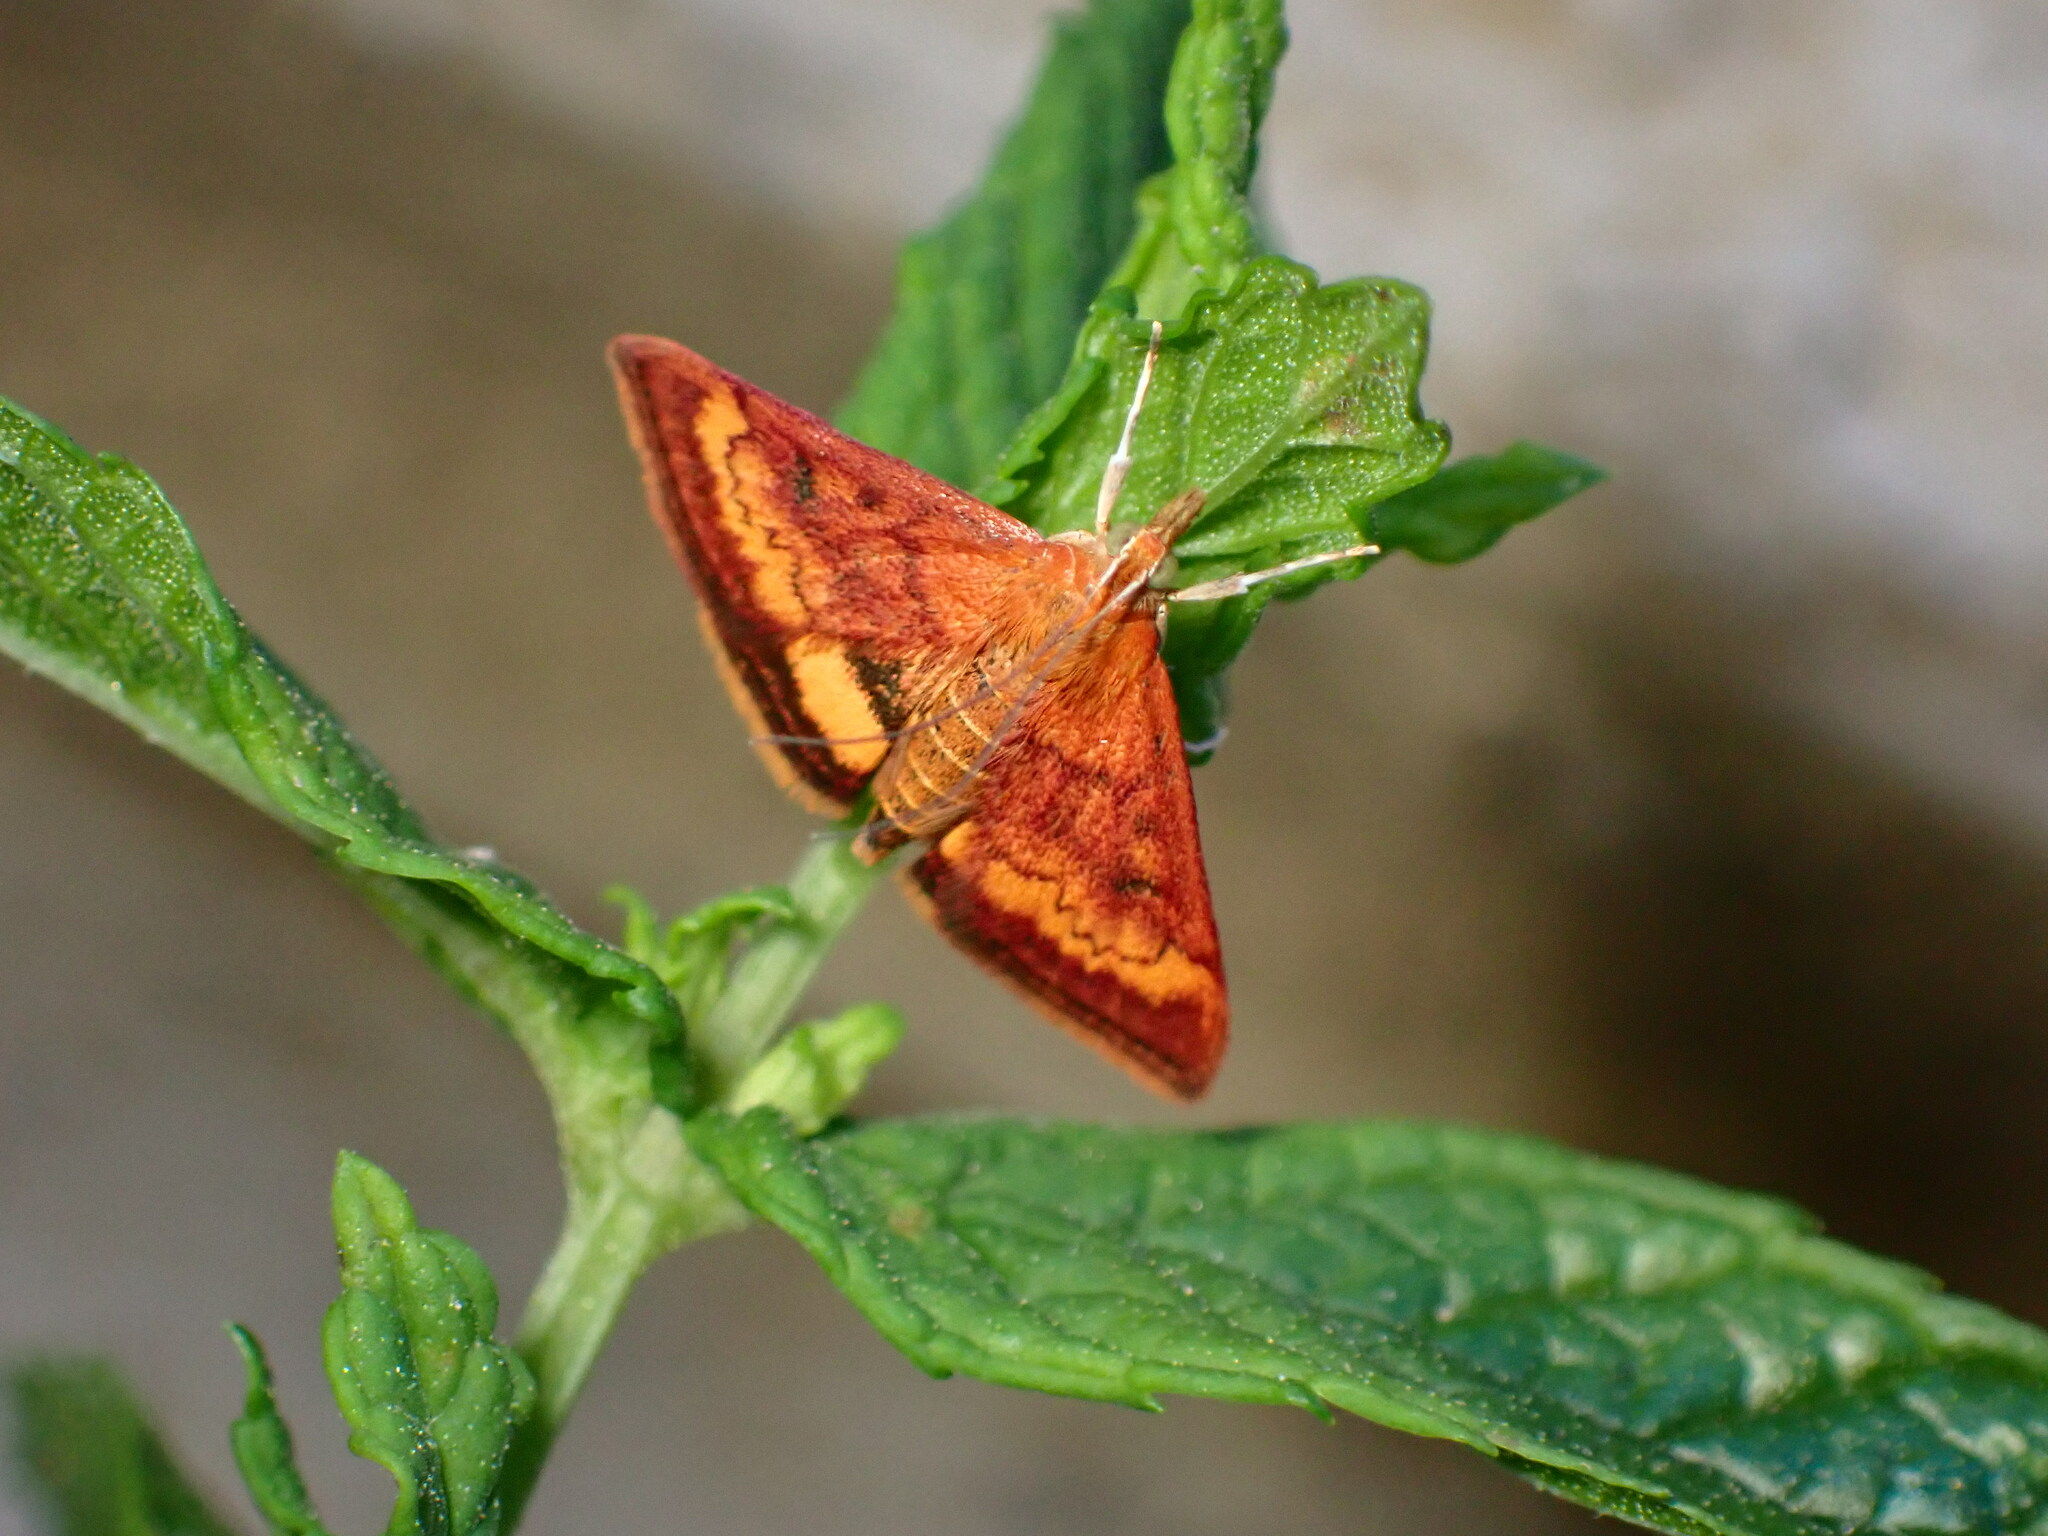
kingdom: Animalia
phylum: Arthropoda
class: Insecta
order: Lepidoptera
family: Crambidae
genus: Pyrausta
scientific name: Pyrausta californicalis
